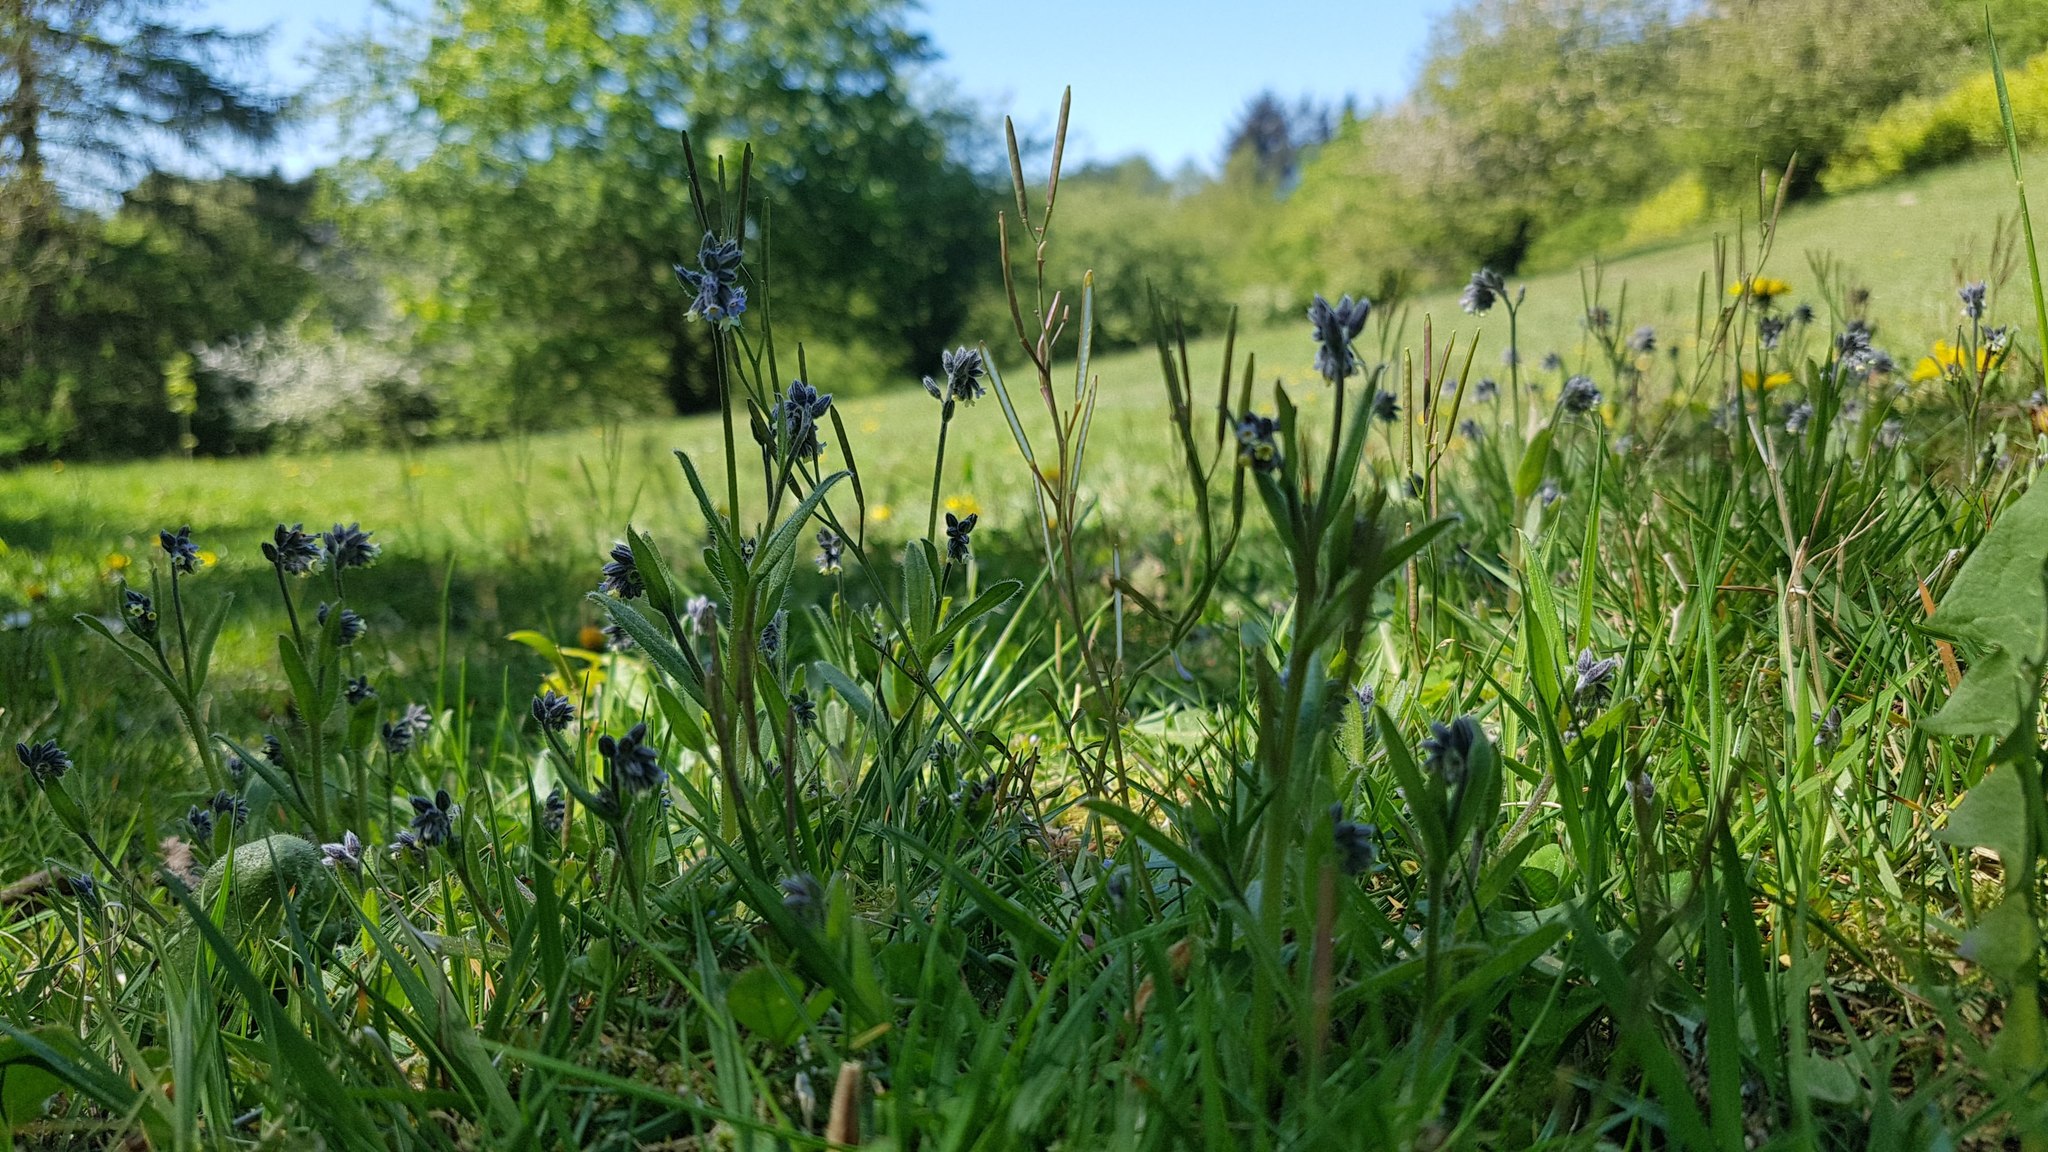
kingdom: Plantae
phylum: Tracheophyta
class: Magnoliopsida
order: Boraginales
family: Boraginaceae
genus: Myosotis
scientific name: Myosotis discolor
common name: Changing forget-me-not
